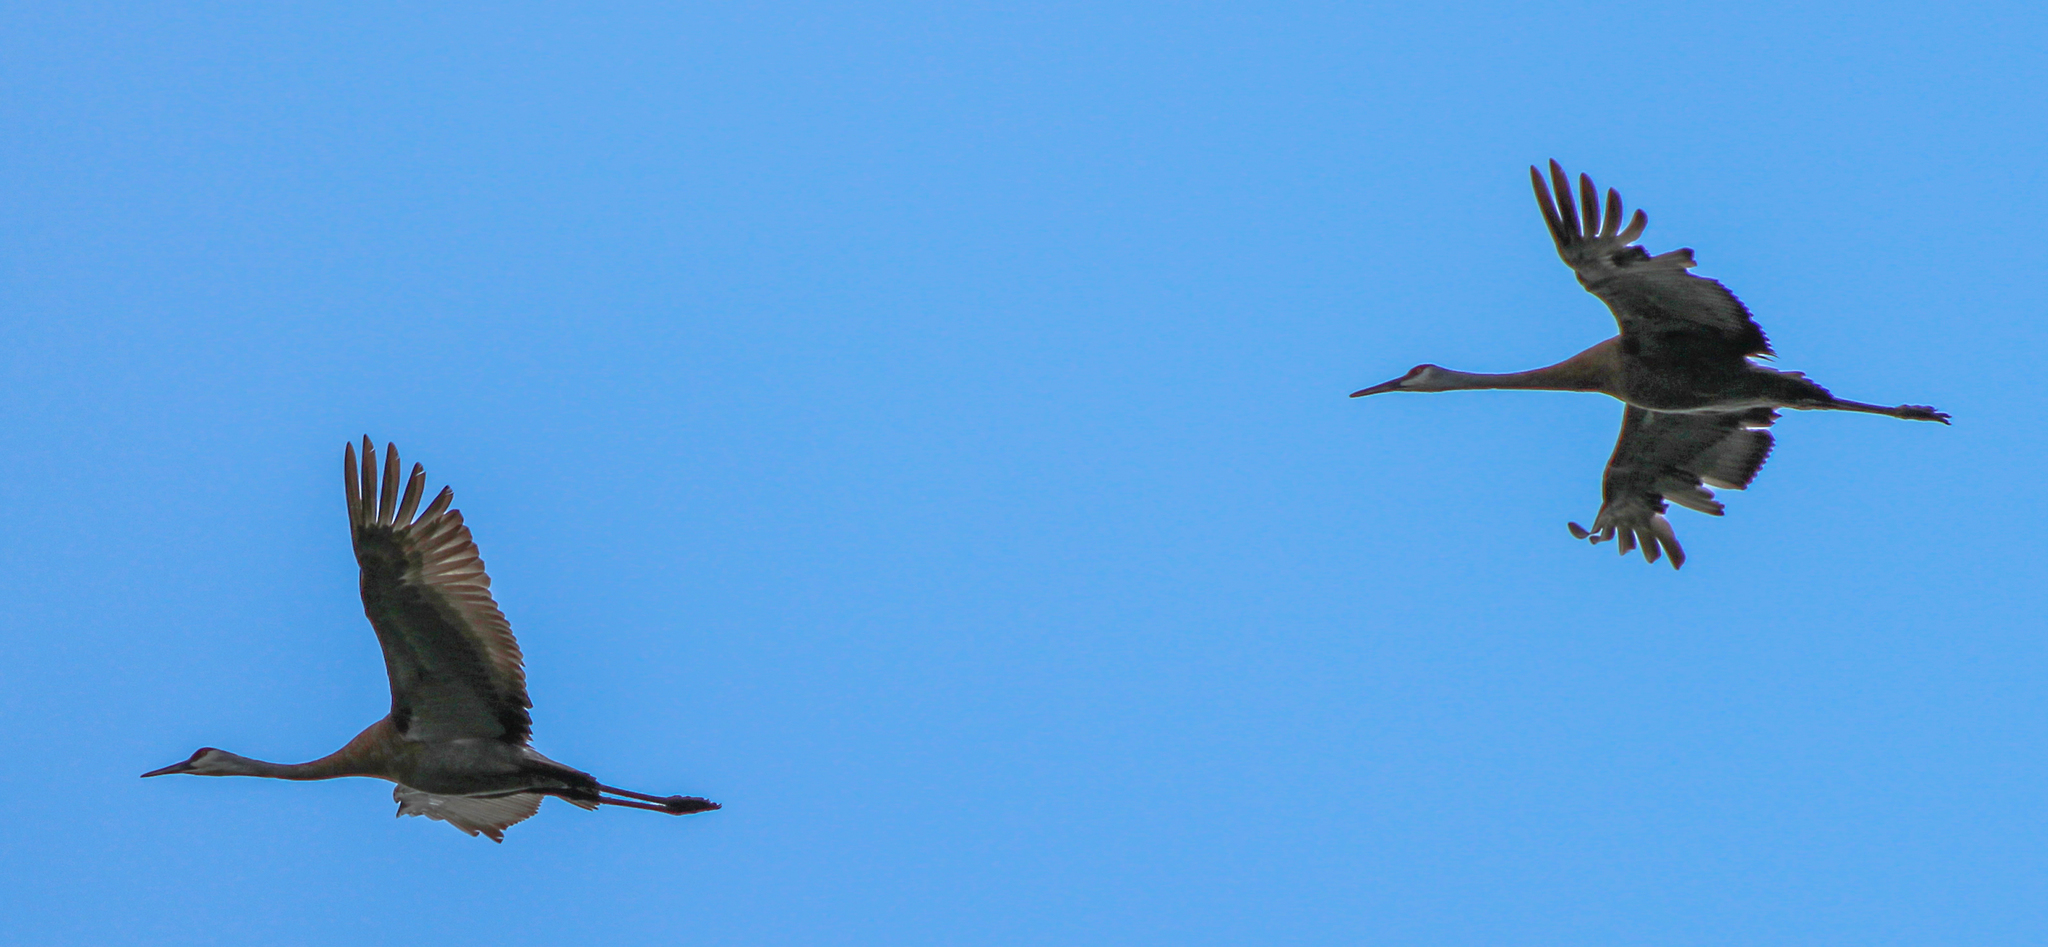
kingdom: Animalia
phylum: Chordata
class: Aves
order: Gruiformes
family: Gruidae
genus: Grus
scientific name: Grus canadensis
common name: Sandhill crane
